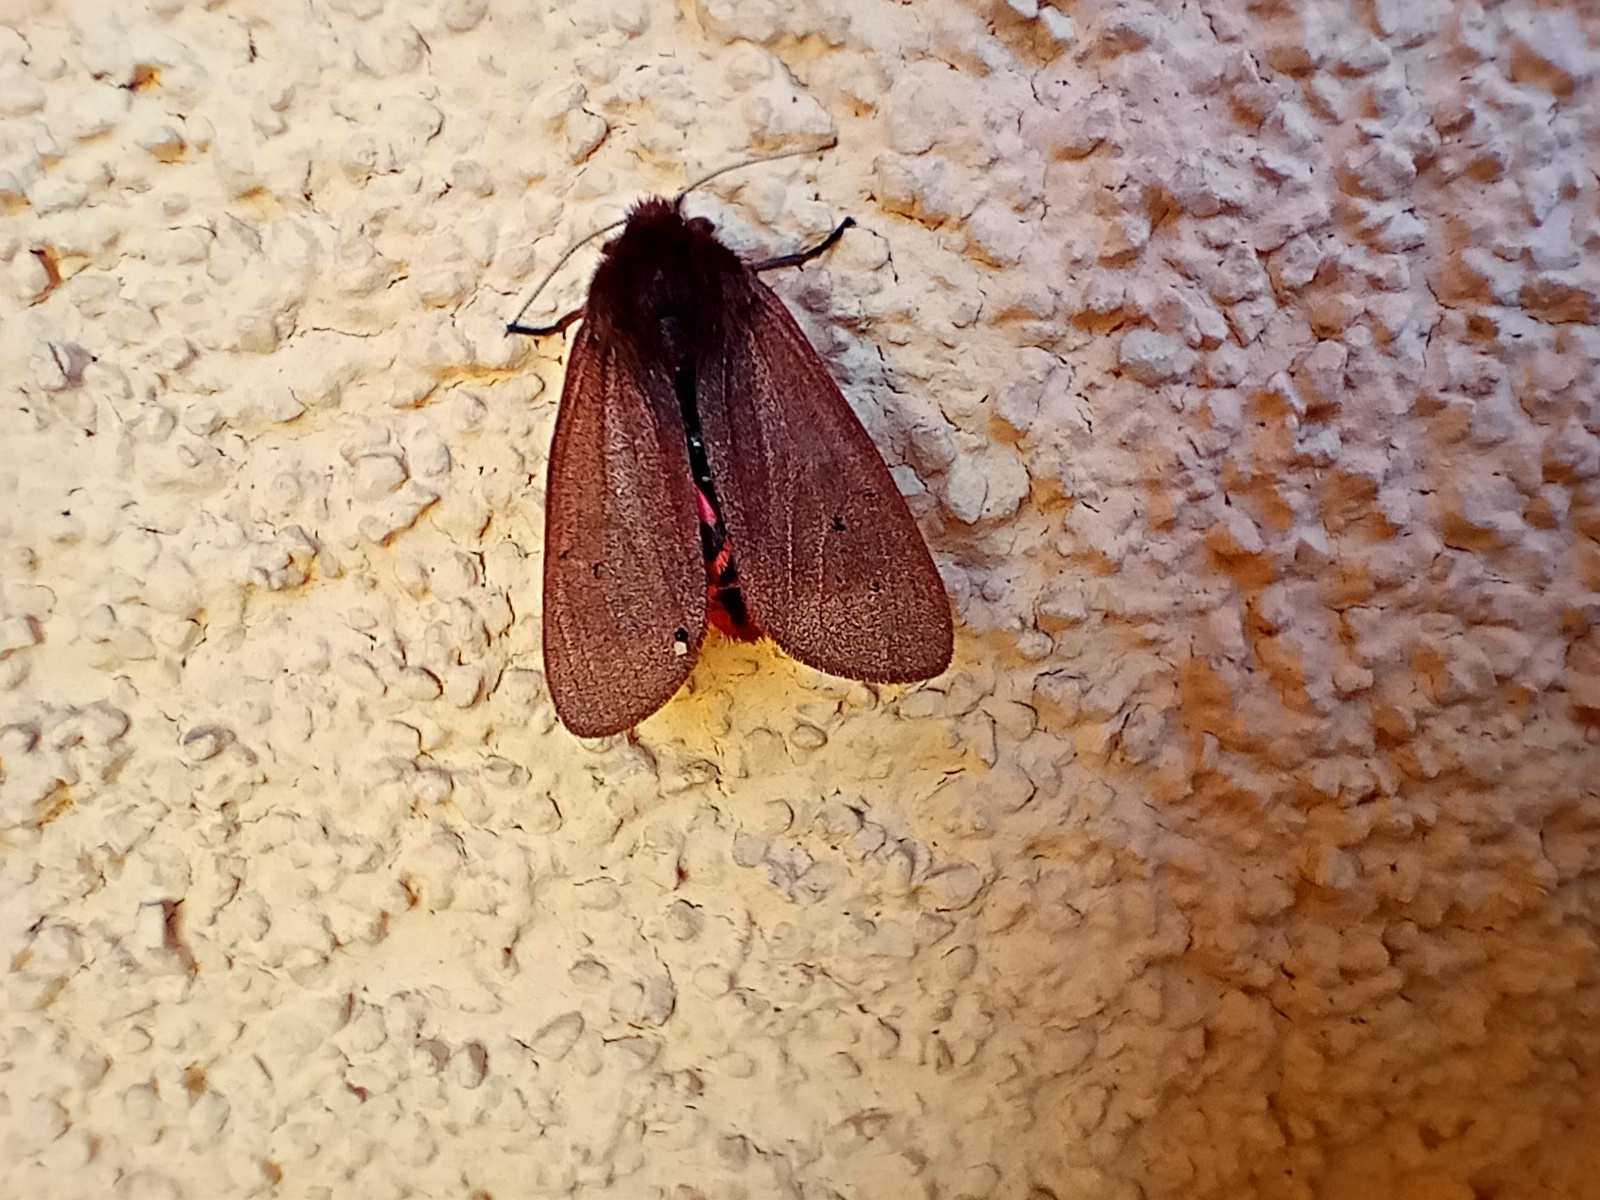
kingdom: Animalia
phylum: Arthropoda
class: Insecta
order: Lepidoptera
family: Erebidae
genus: Phragmatobia
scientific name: Phragmatobia fuliginosa
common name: Ruby tiger
